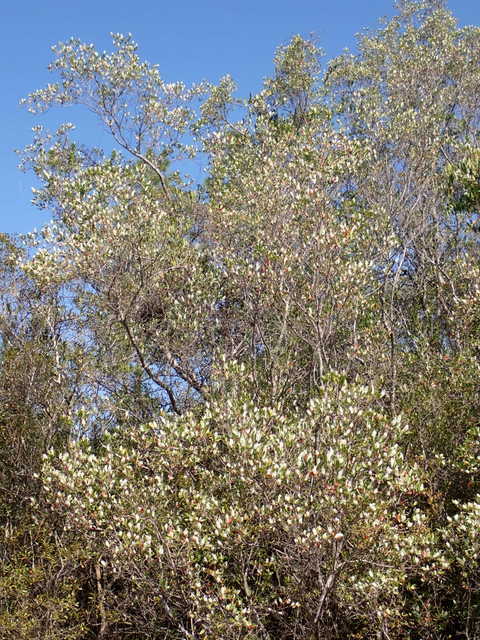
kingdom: Plantae
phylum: Tracheophyta
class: Magnoliopsida
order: Ericales
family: Cyrillaceae
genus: Cliftonia
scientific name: Cliftonia monophylla
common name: Titi
